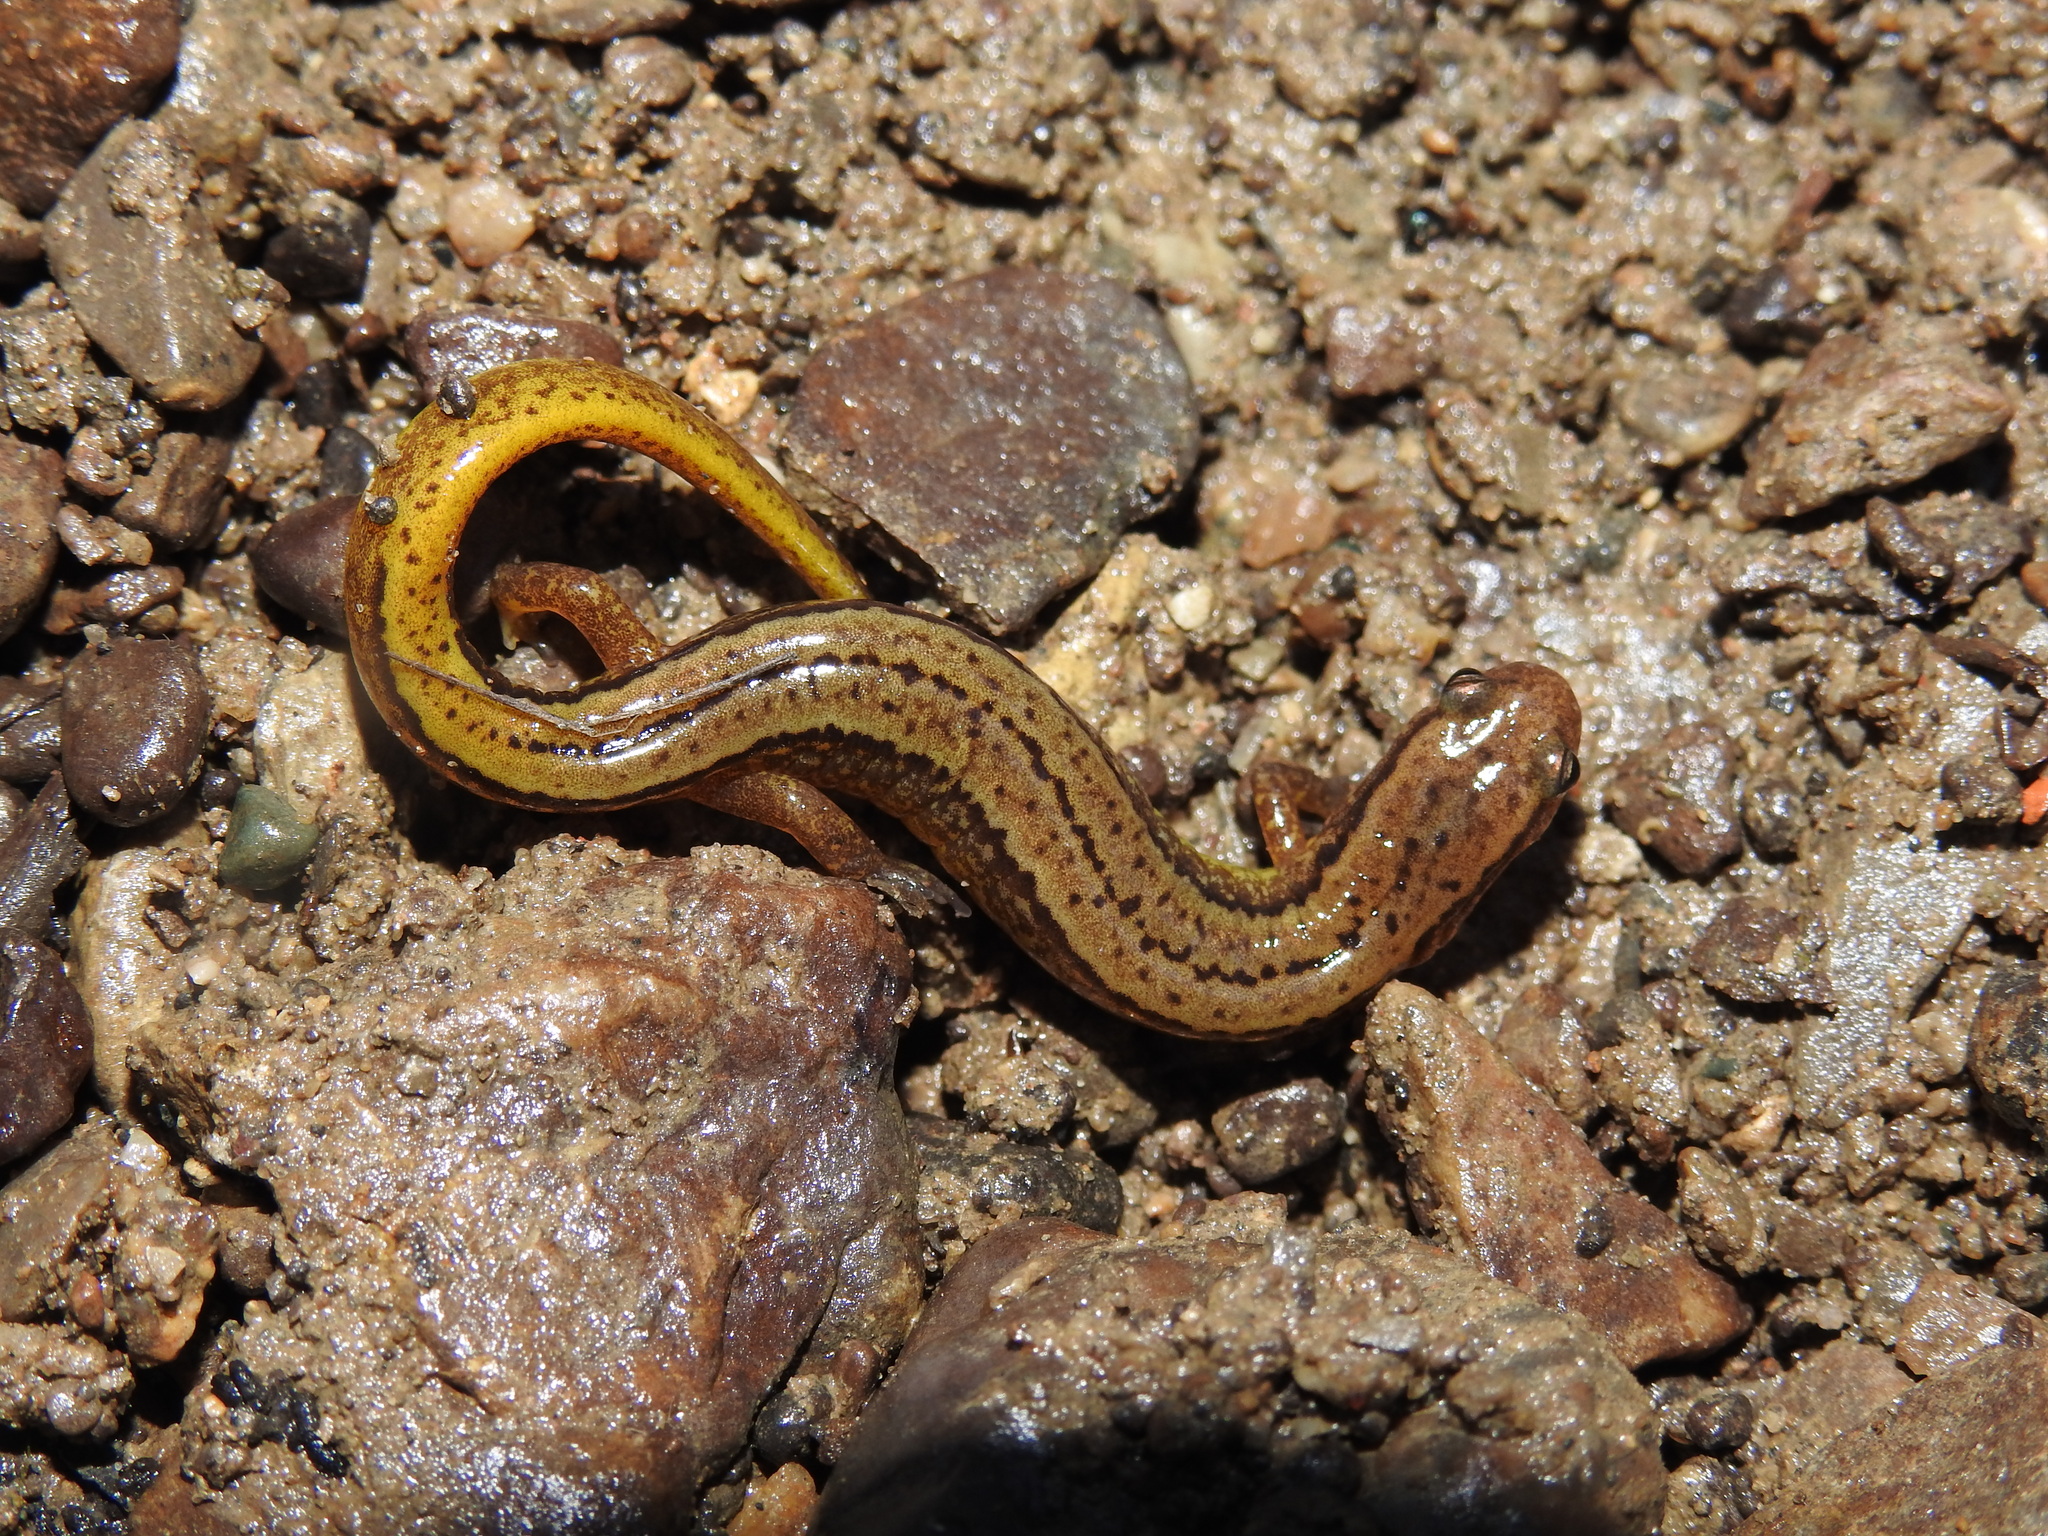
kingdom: Animalia
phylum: Chordata
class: Amphibia
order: Caudata
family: Plethodontidae
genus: Eurycea
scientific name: Eurycea cirrigera
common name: Southern two-lined salamander
